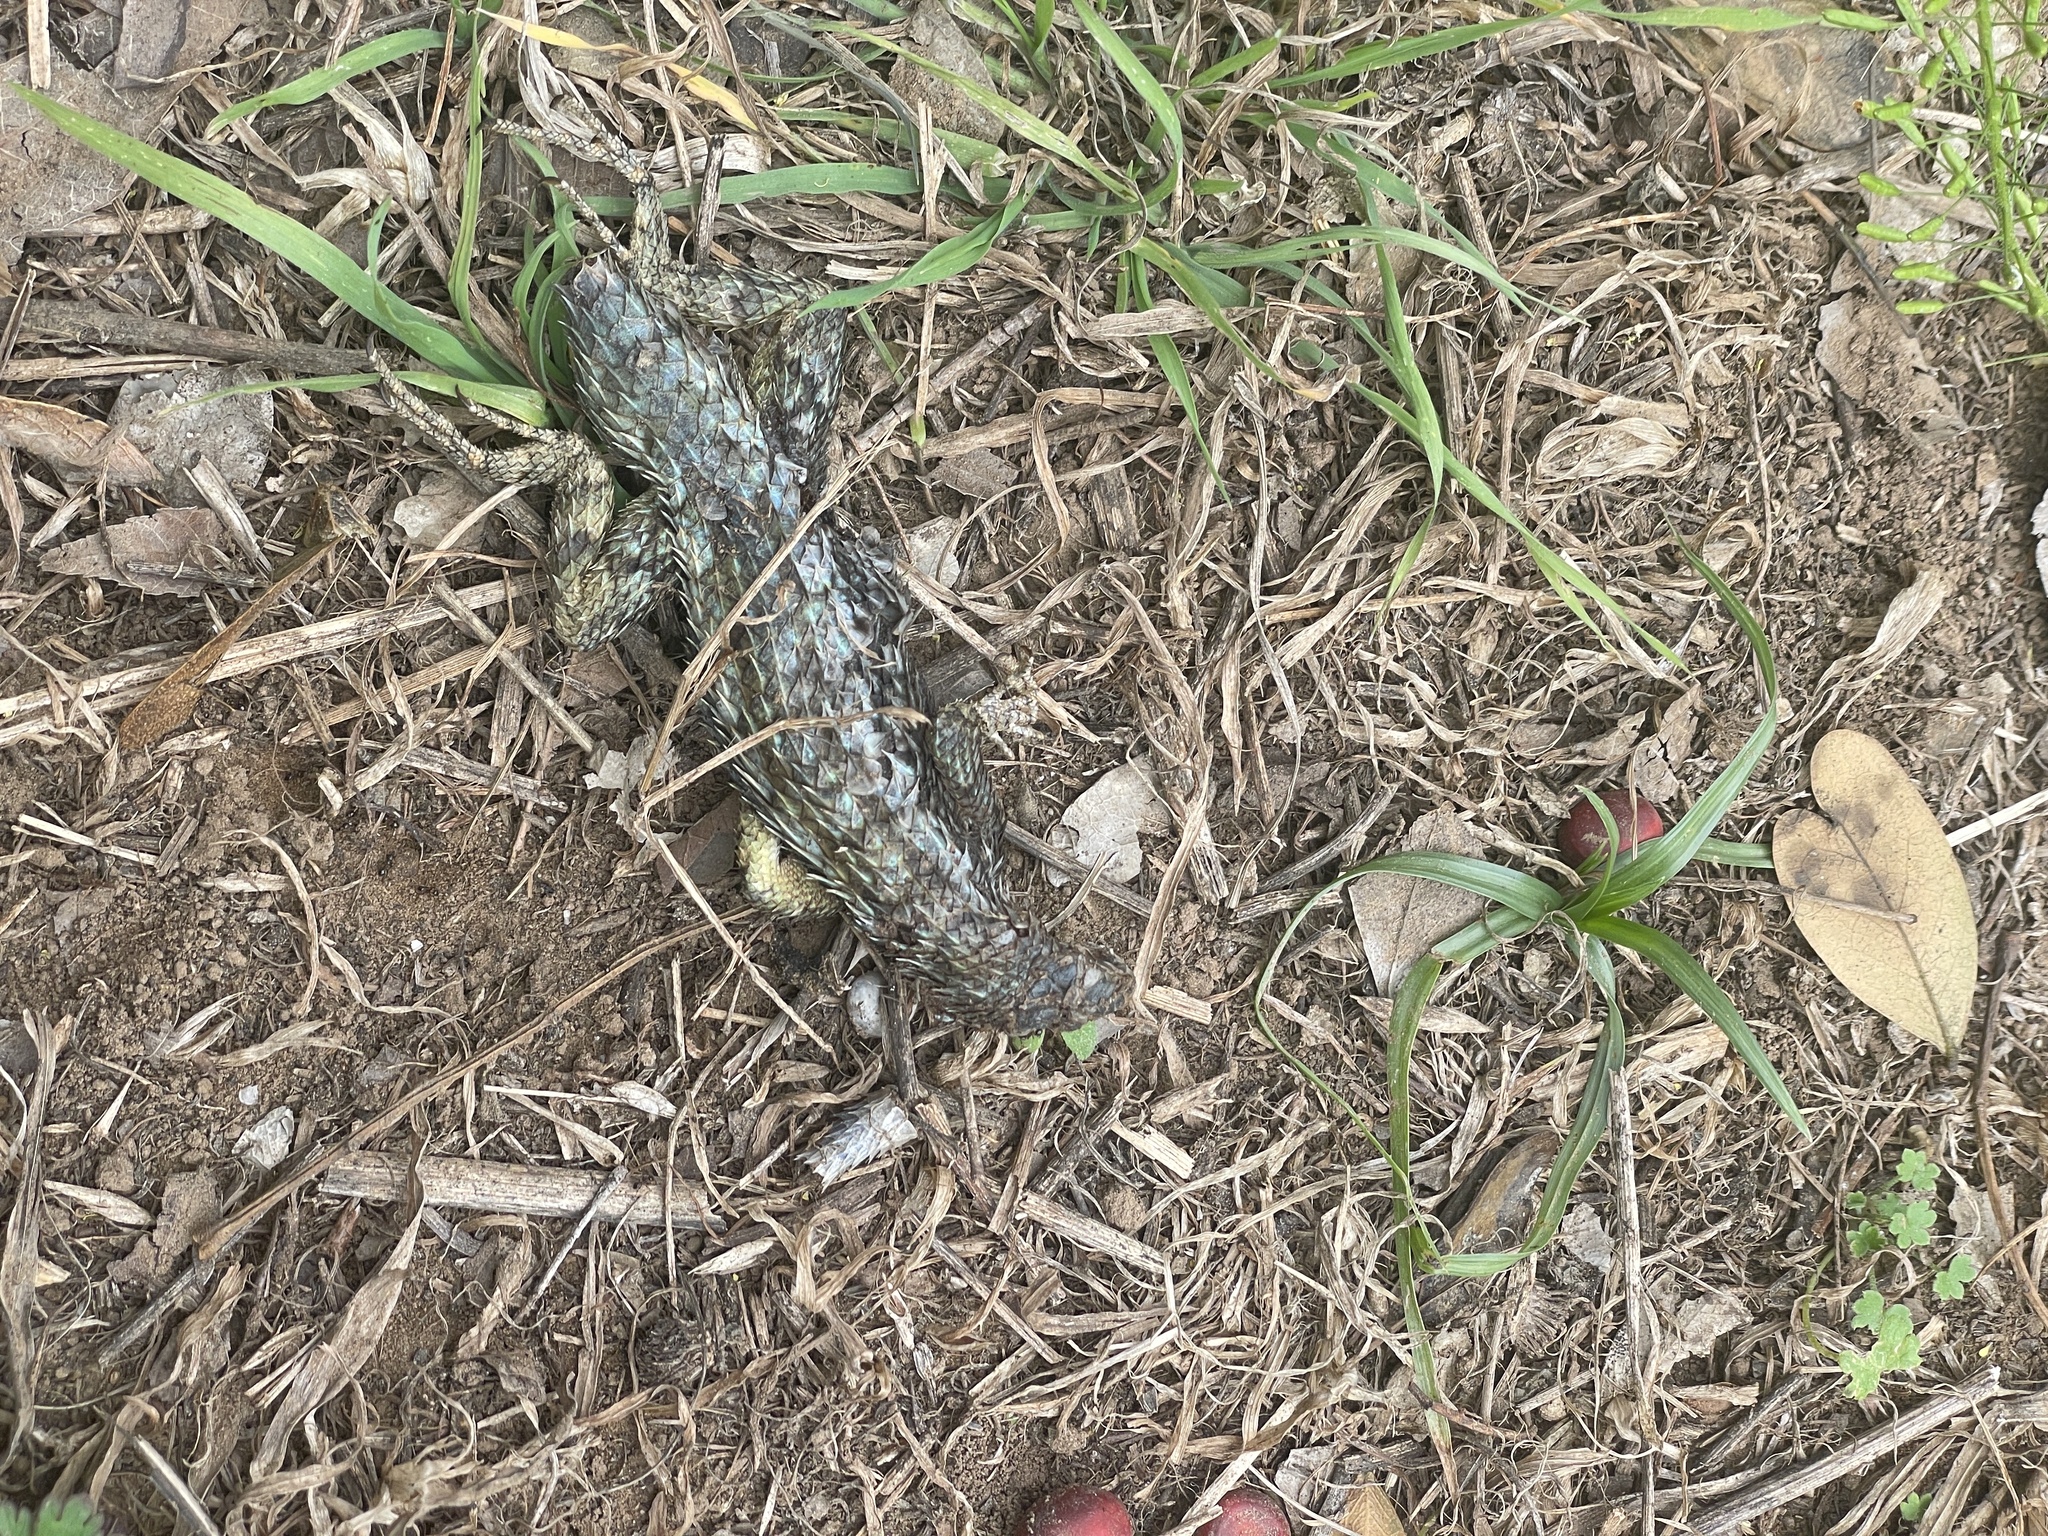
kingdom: Animalia
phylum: Chordata
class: Squamata
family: Phrynosomatidae
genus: Sceloporus
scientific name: Sceloporus olivaceus
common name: Texas spiny lizard
